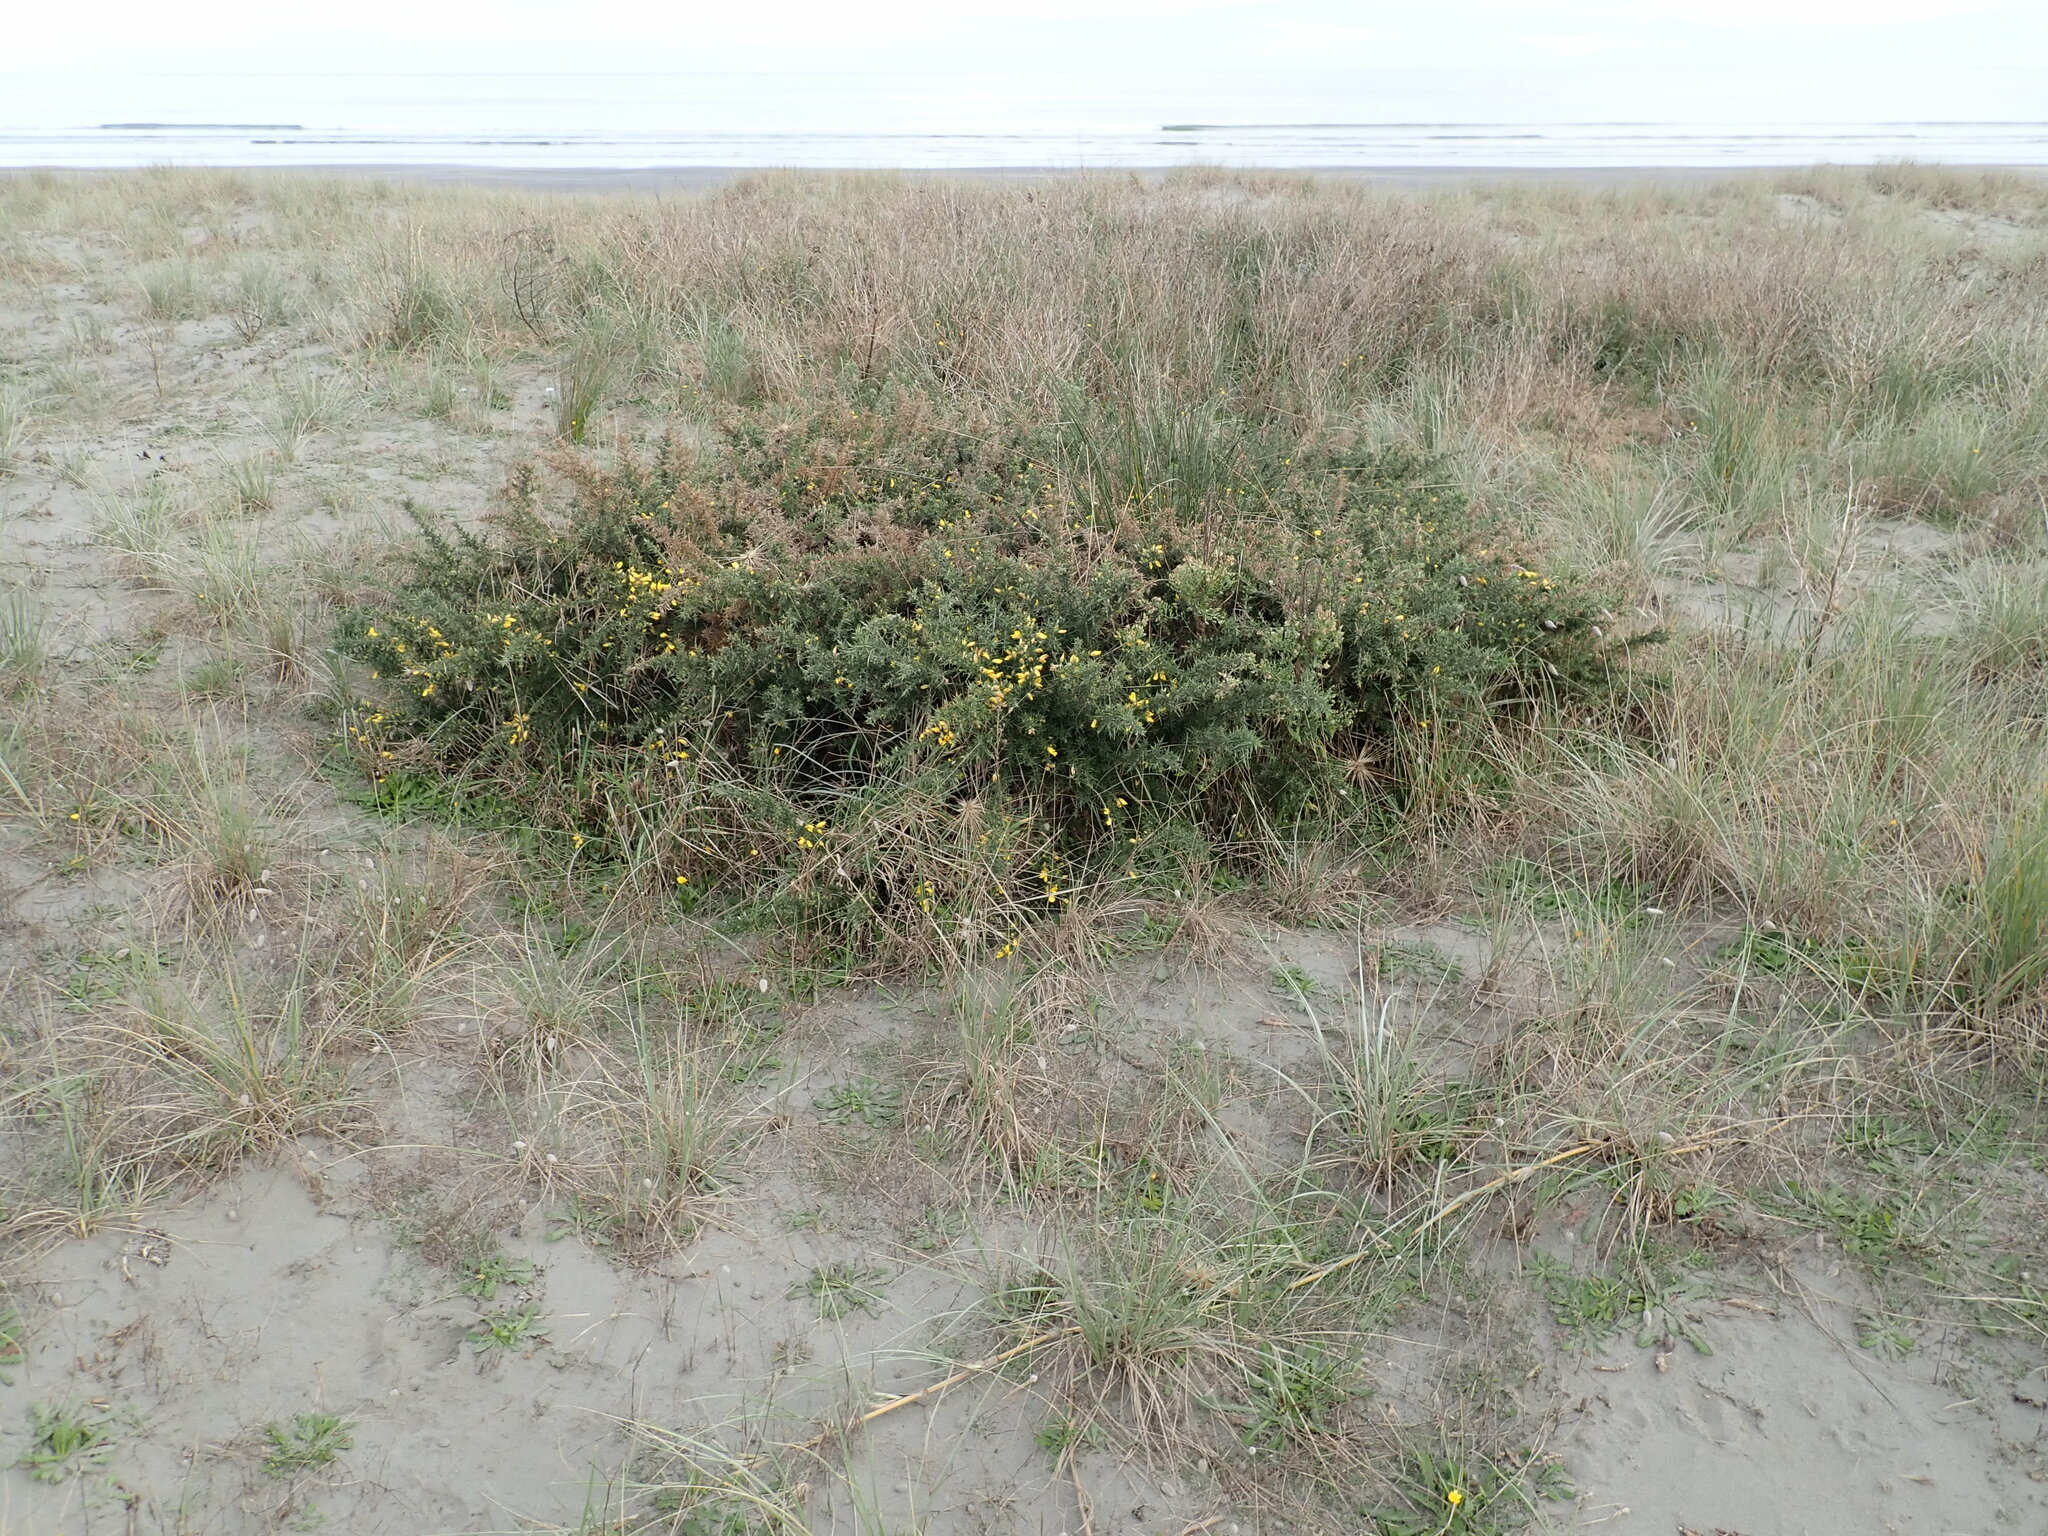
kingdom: Plantae
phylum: Tracheophyta
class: Magnoliopsida
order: Fabales
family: Fabaceae
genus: Ulex
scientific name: Ulex europaeus
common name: Common gorse
